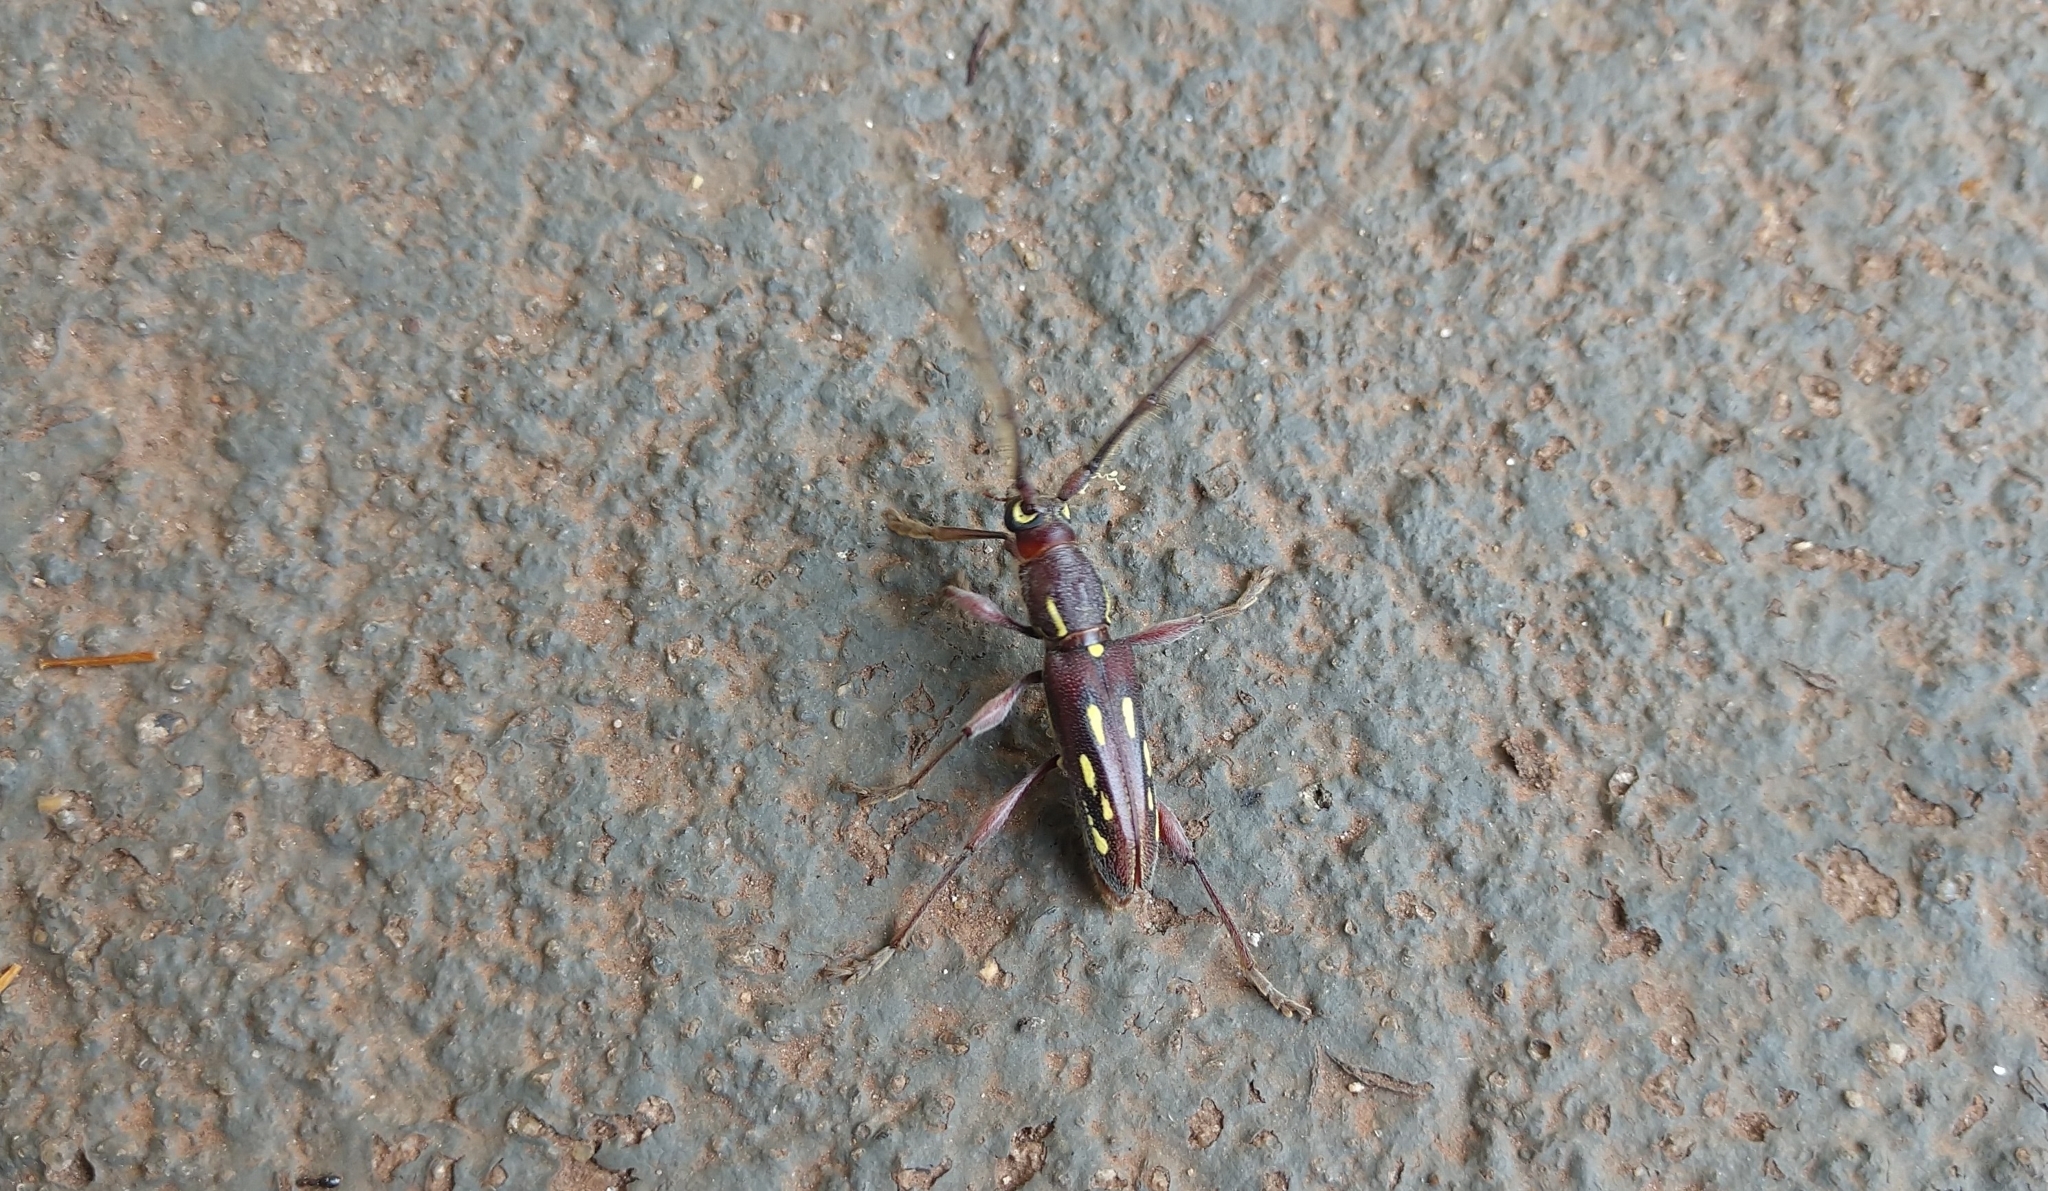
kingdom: Animalia
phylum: Arthropoda
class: Insecta
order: Coleoptera
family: Cerambycidae
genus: Ambonus
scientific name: Ambonus distinctus
